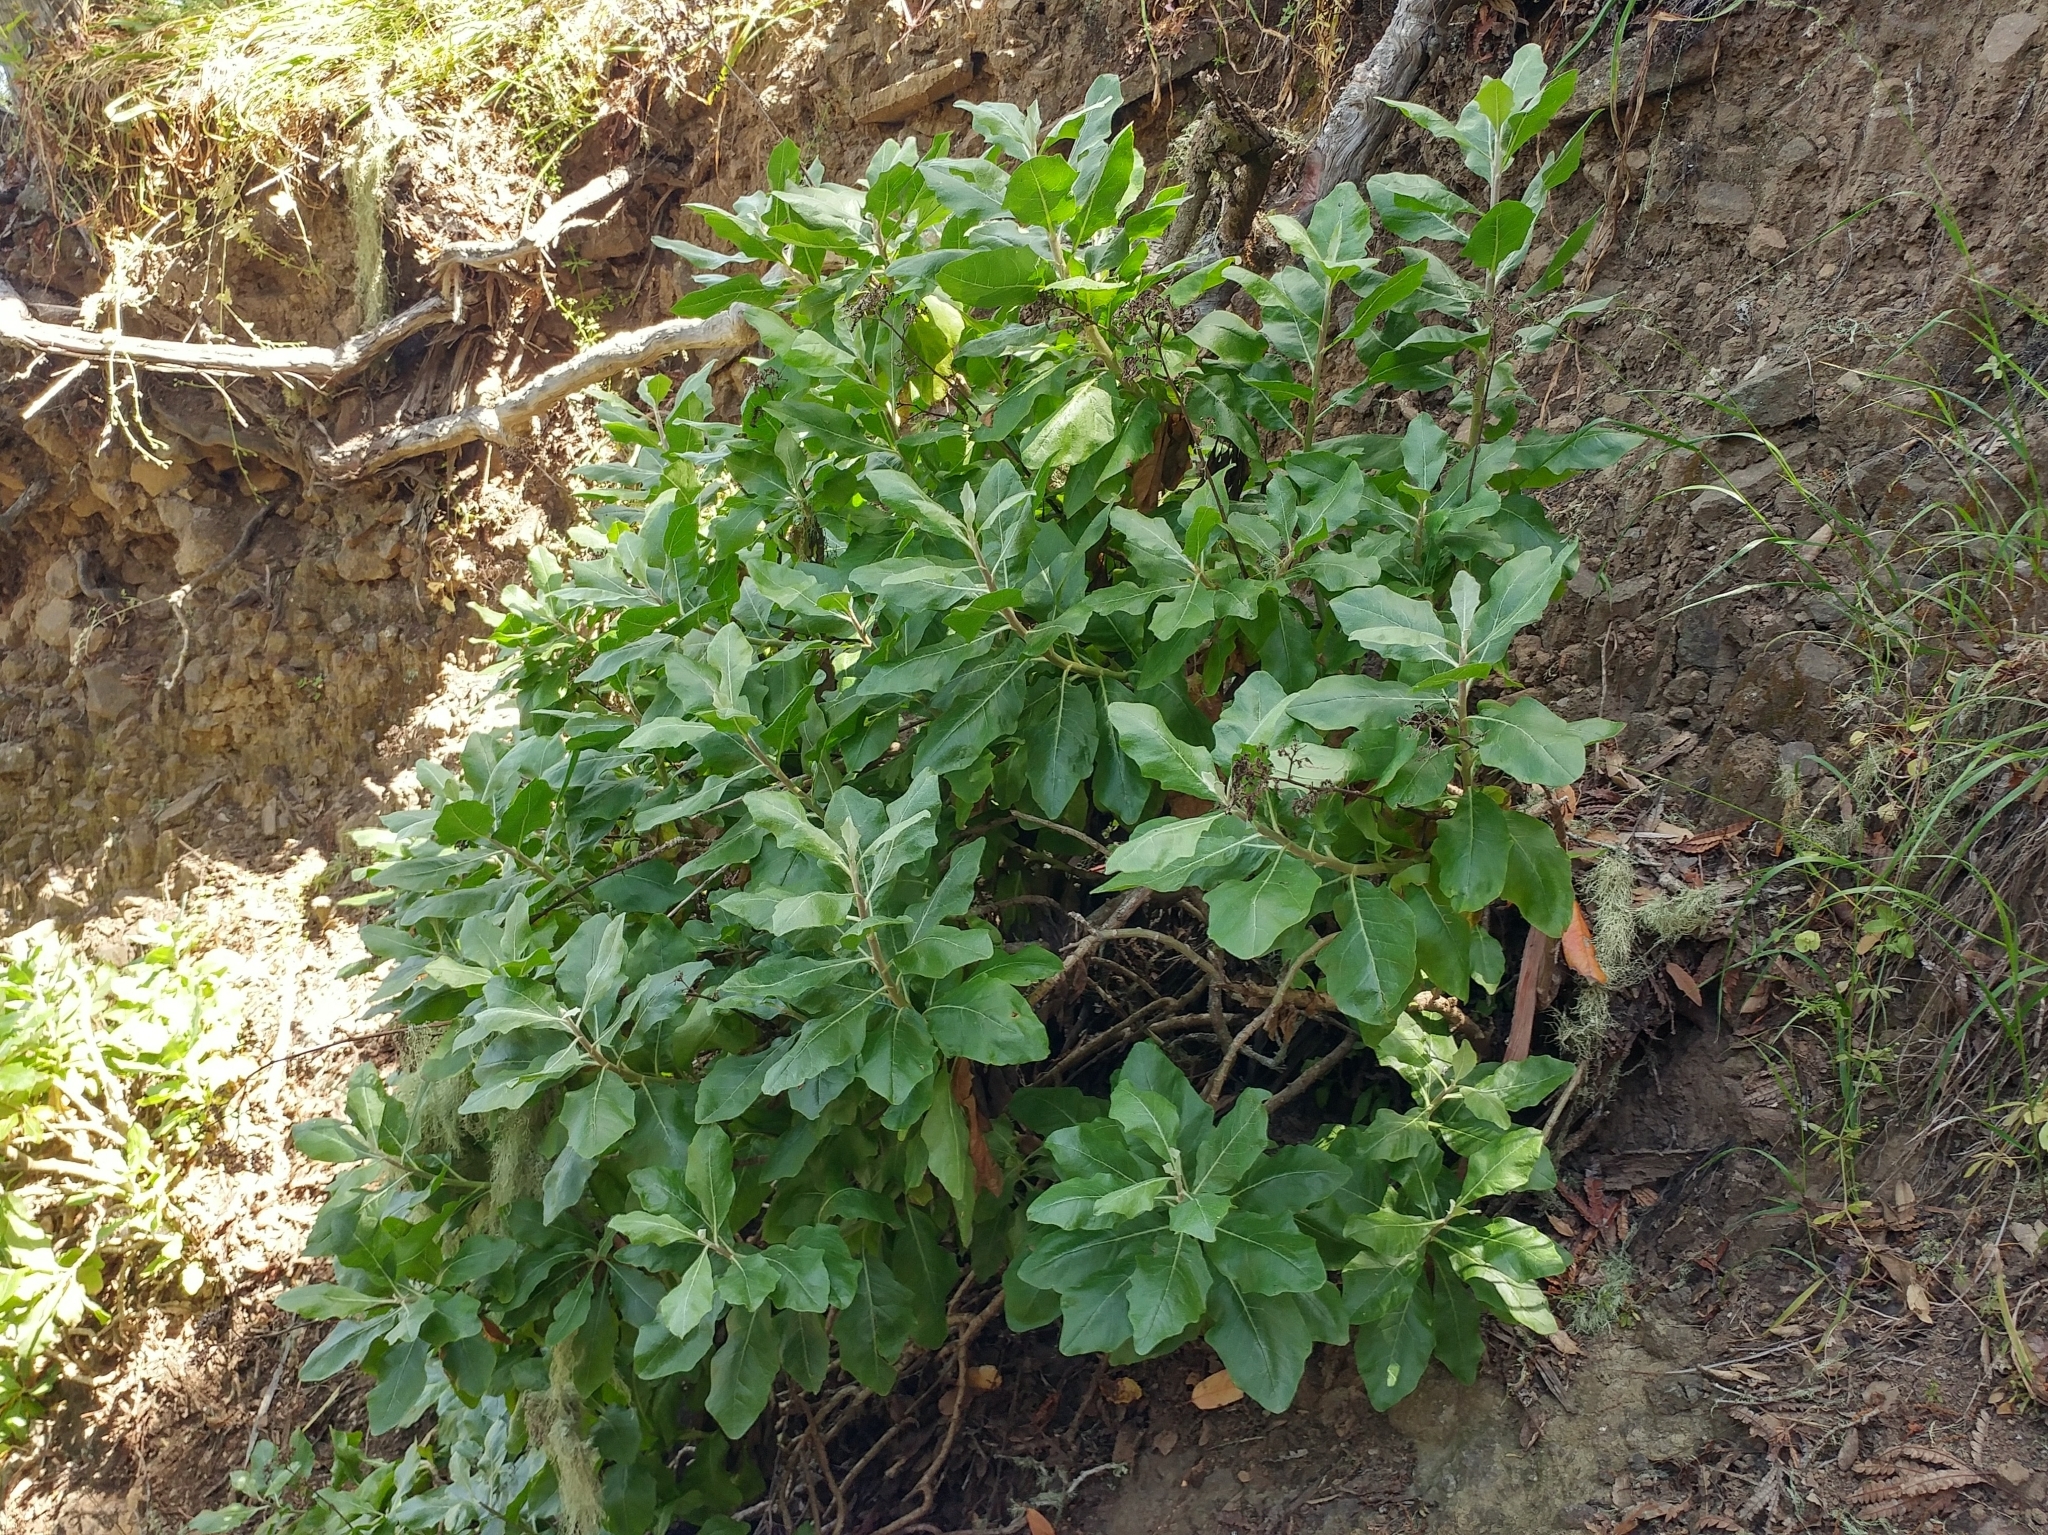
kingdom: Plantae
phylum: Tracheophyta
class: Magnoliopsida
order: Asterales
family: Asteraceae
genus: Munzothamnus
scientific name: Munzothamnus blairii
